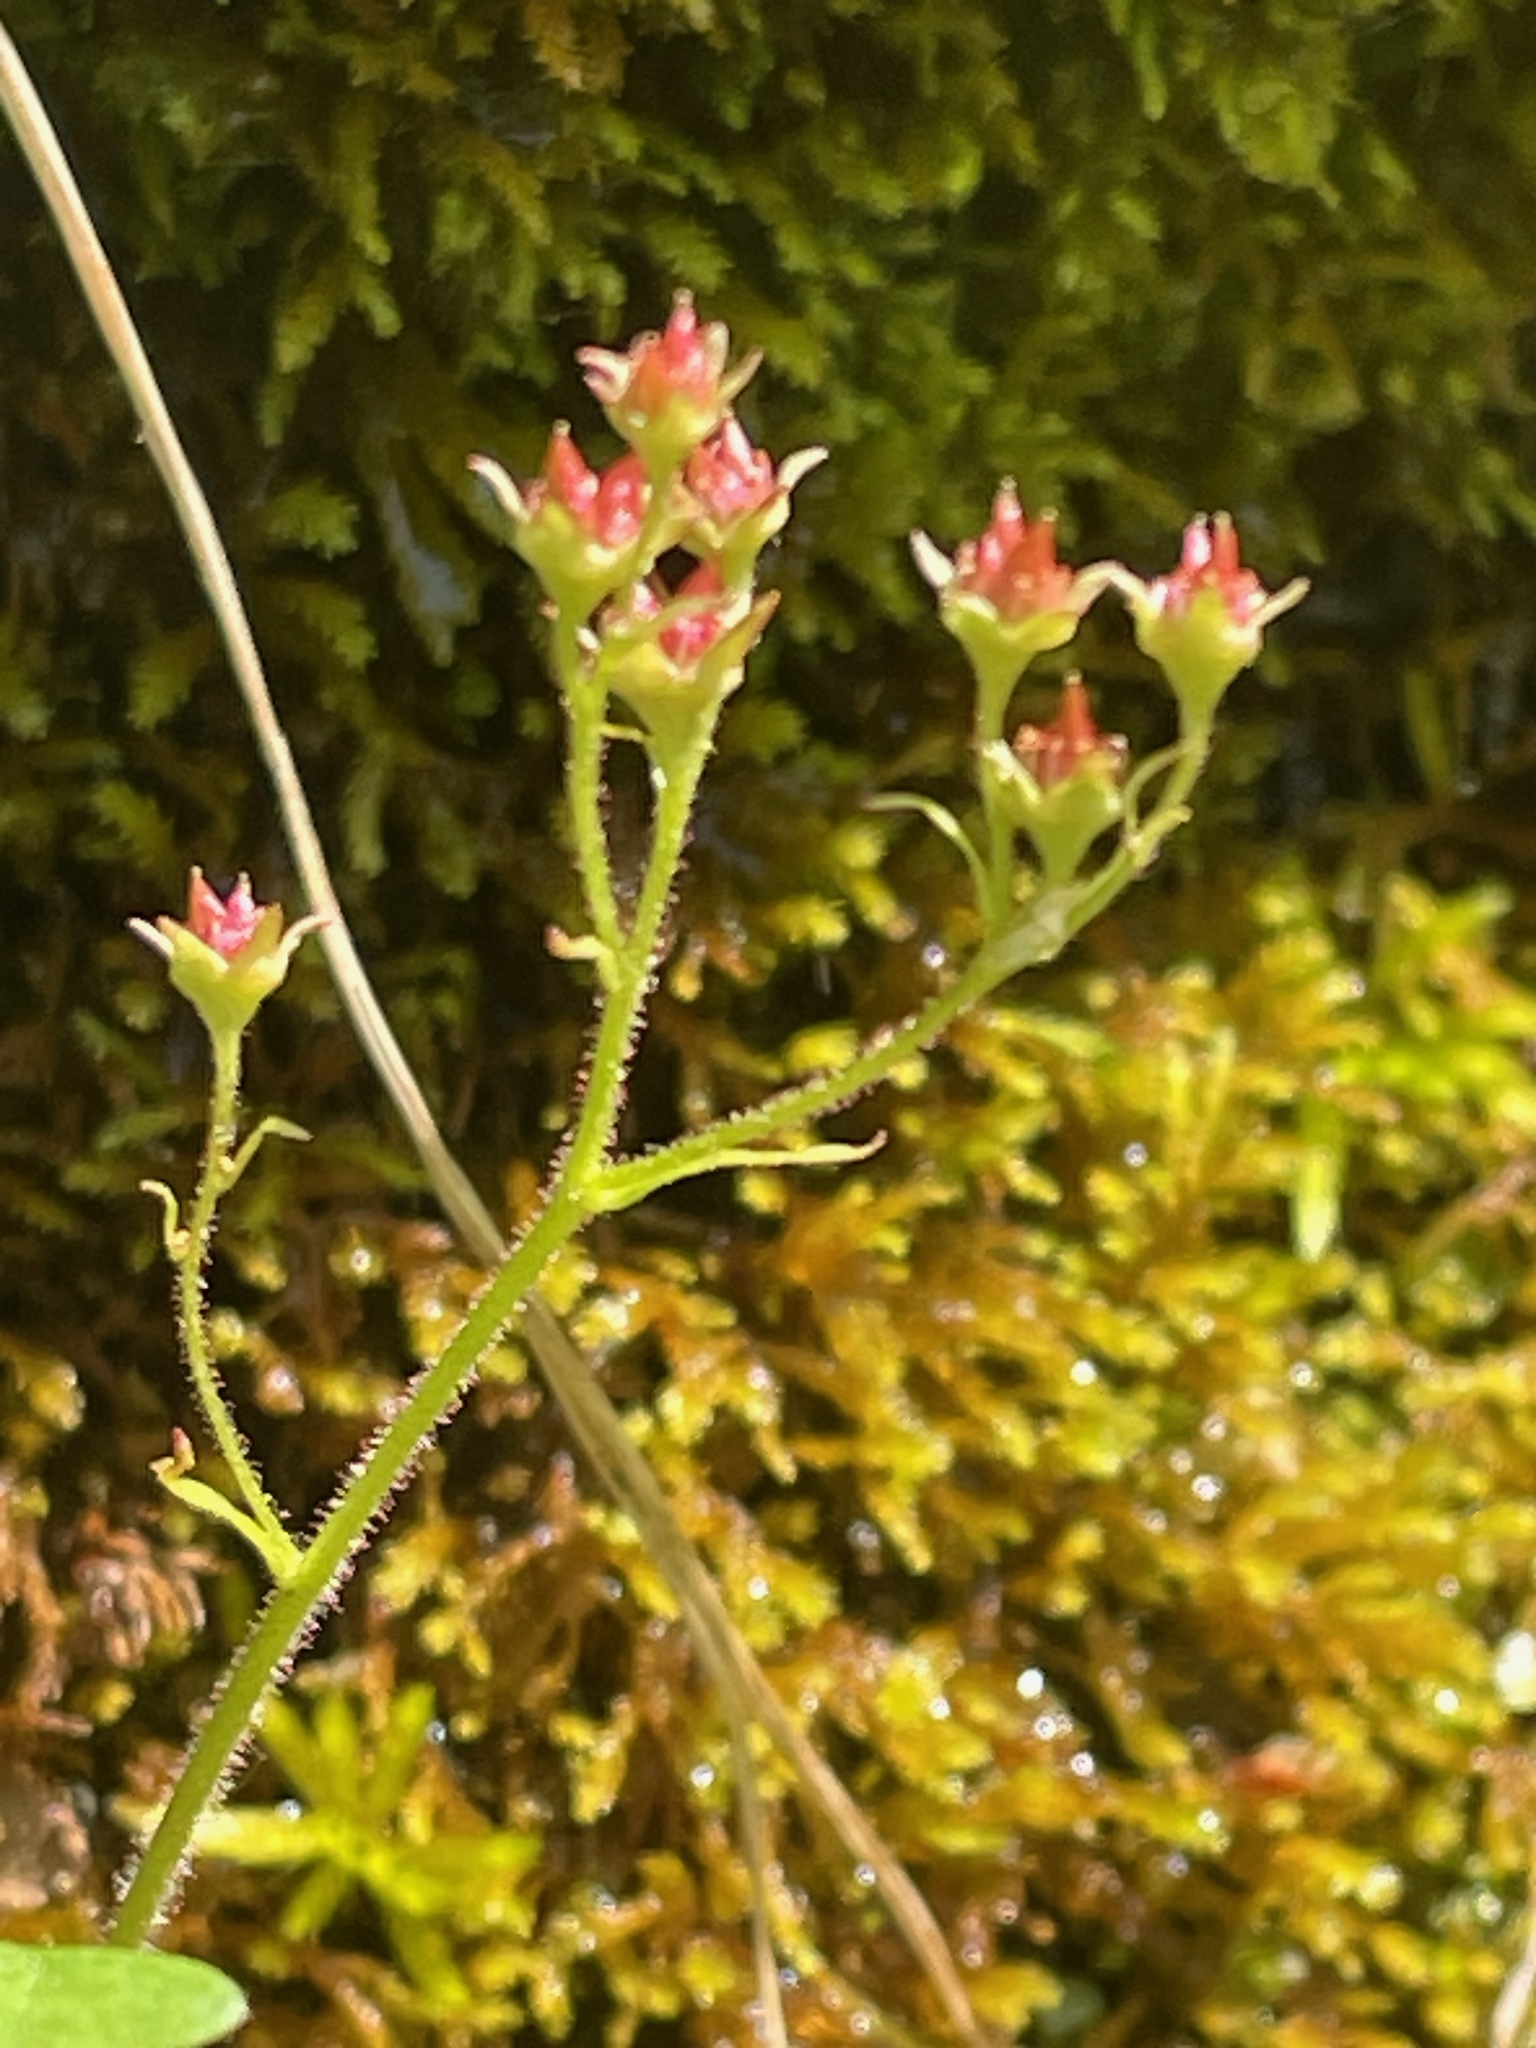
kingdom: Plantae
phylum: Tracheophyta
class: Magnoliopsida
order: Saxifragales
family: Saxifragaceae
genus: Micranthes
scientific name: Micranthes virginiensis
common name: Early saxifrage
